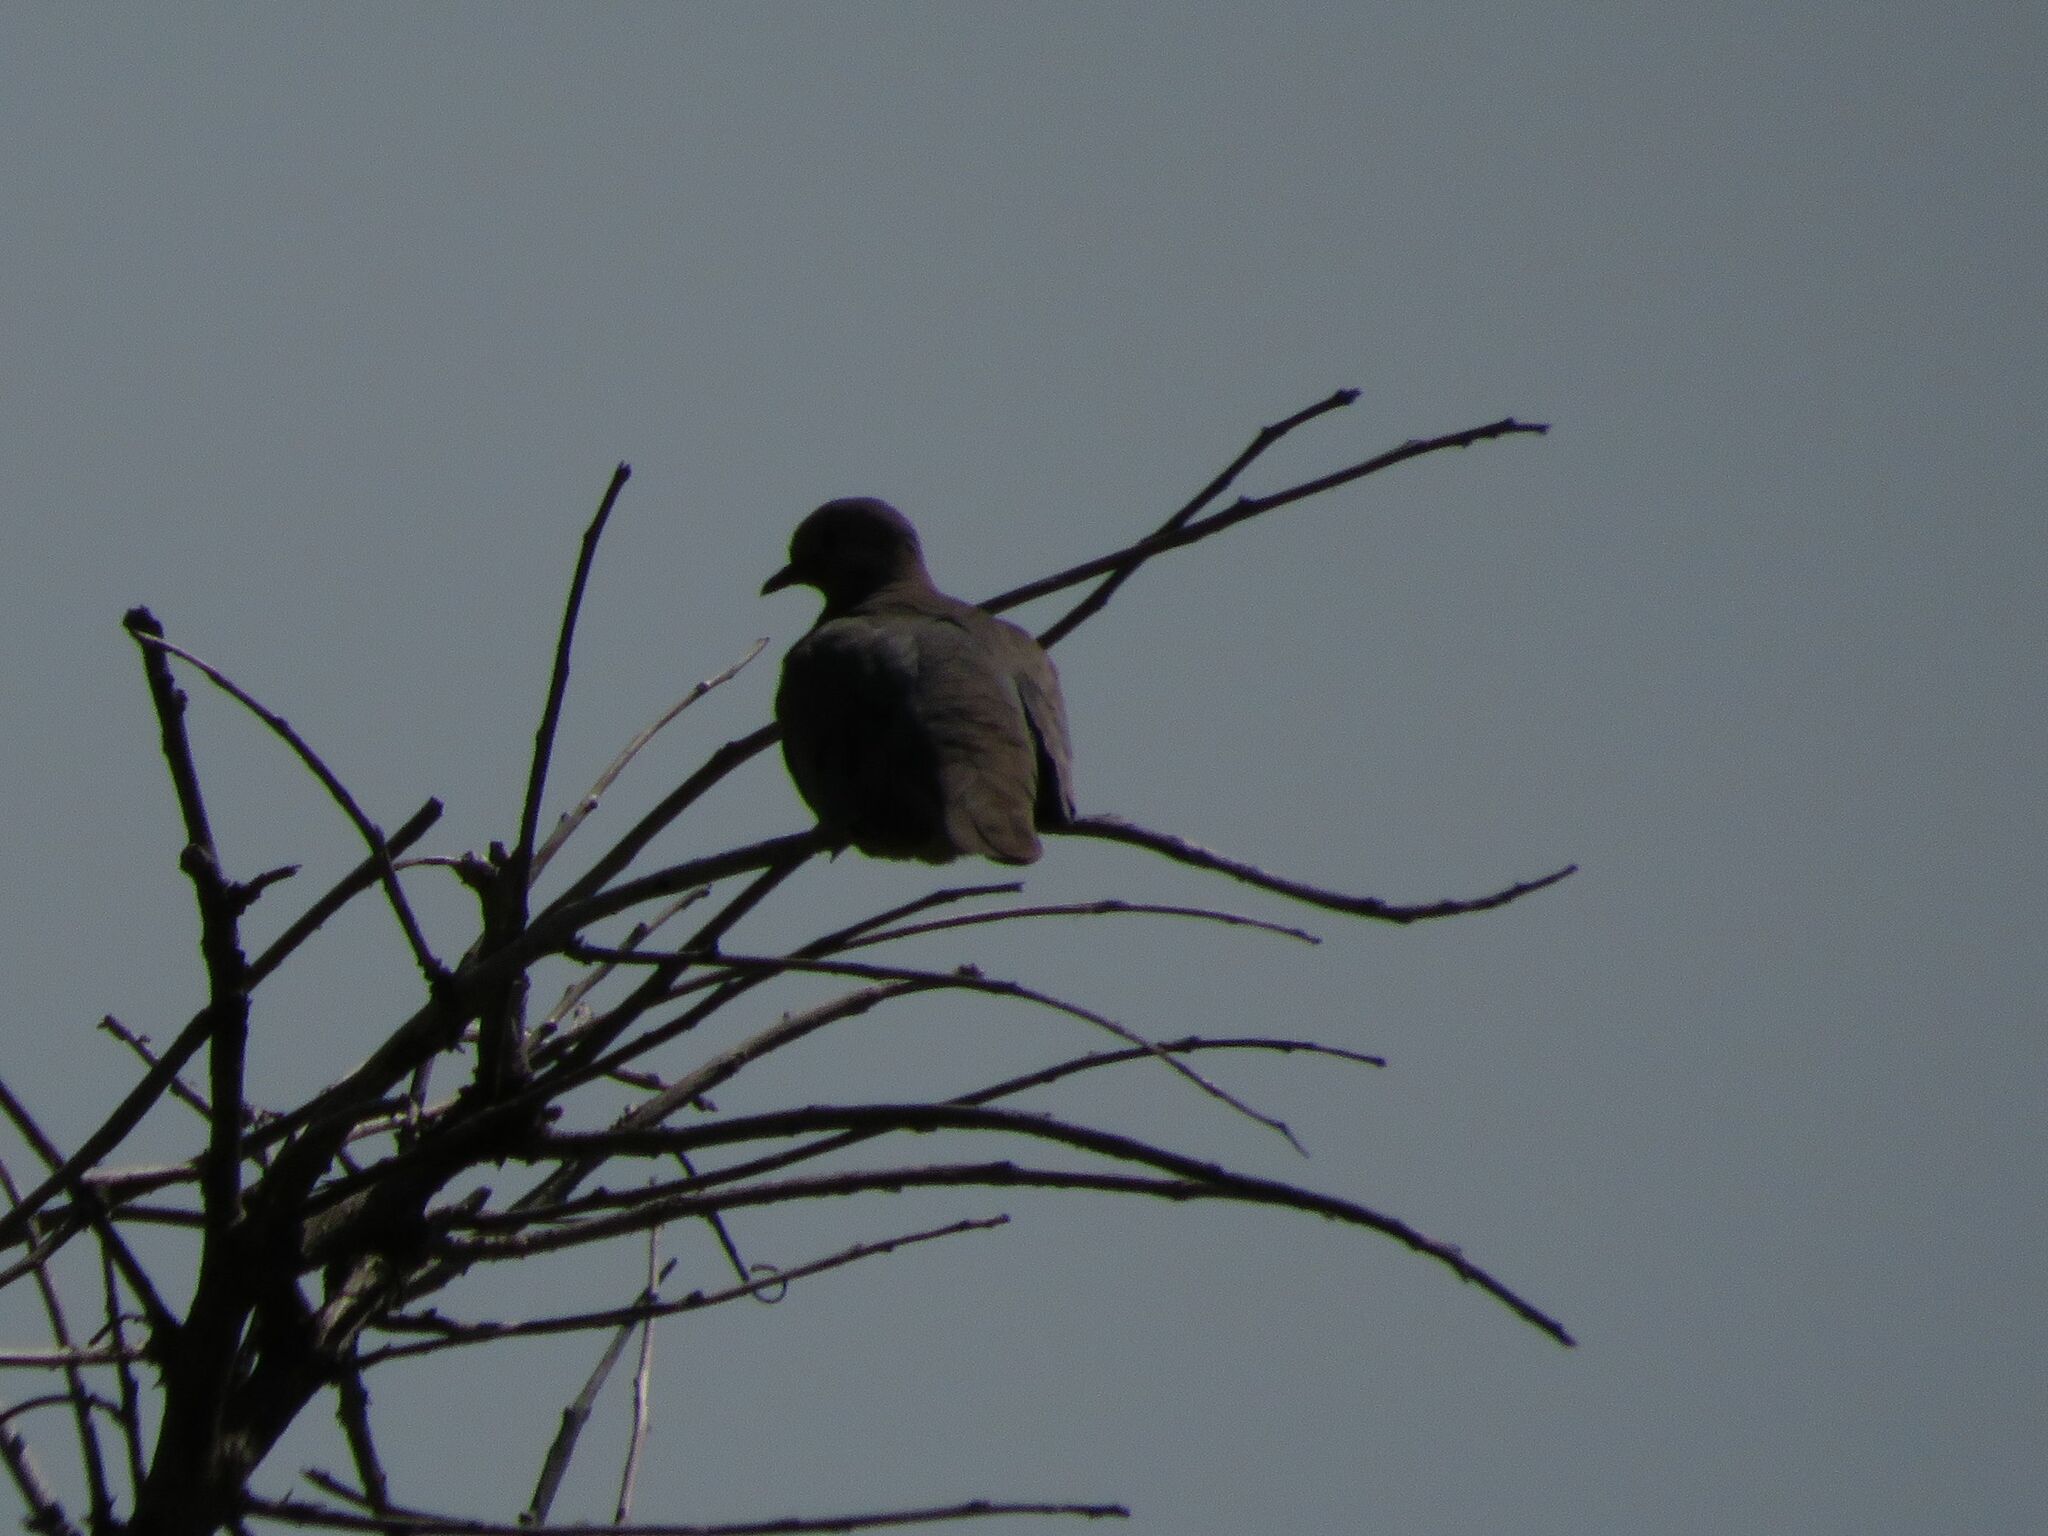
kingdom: Animalia
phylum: Chordata
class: Aves
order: Columbiformes
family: Columbidae
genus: Zenaida
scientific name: Zenaida auriculata
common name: Eared dove
